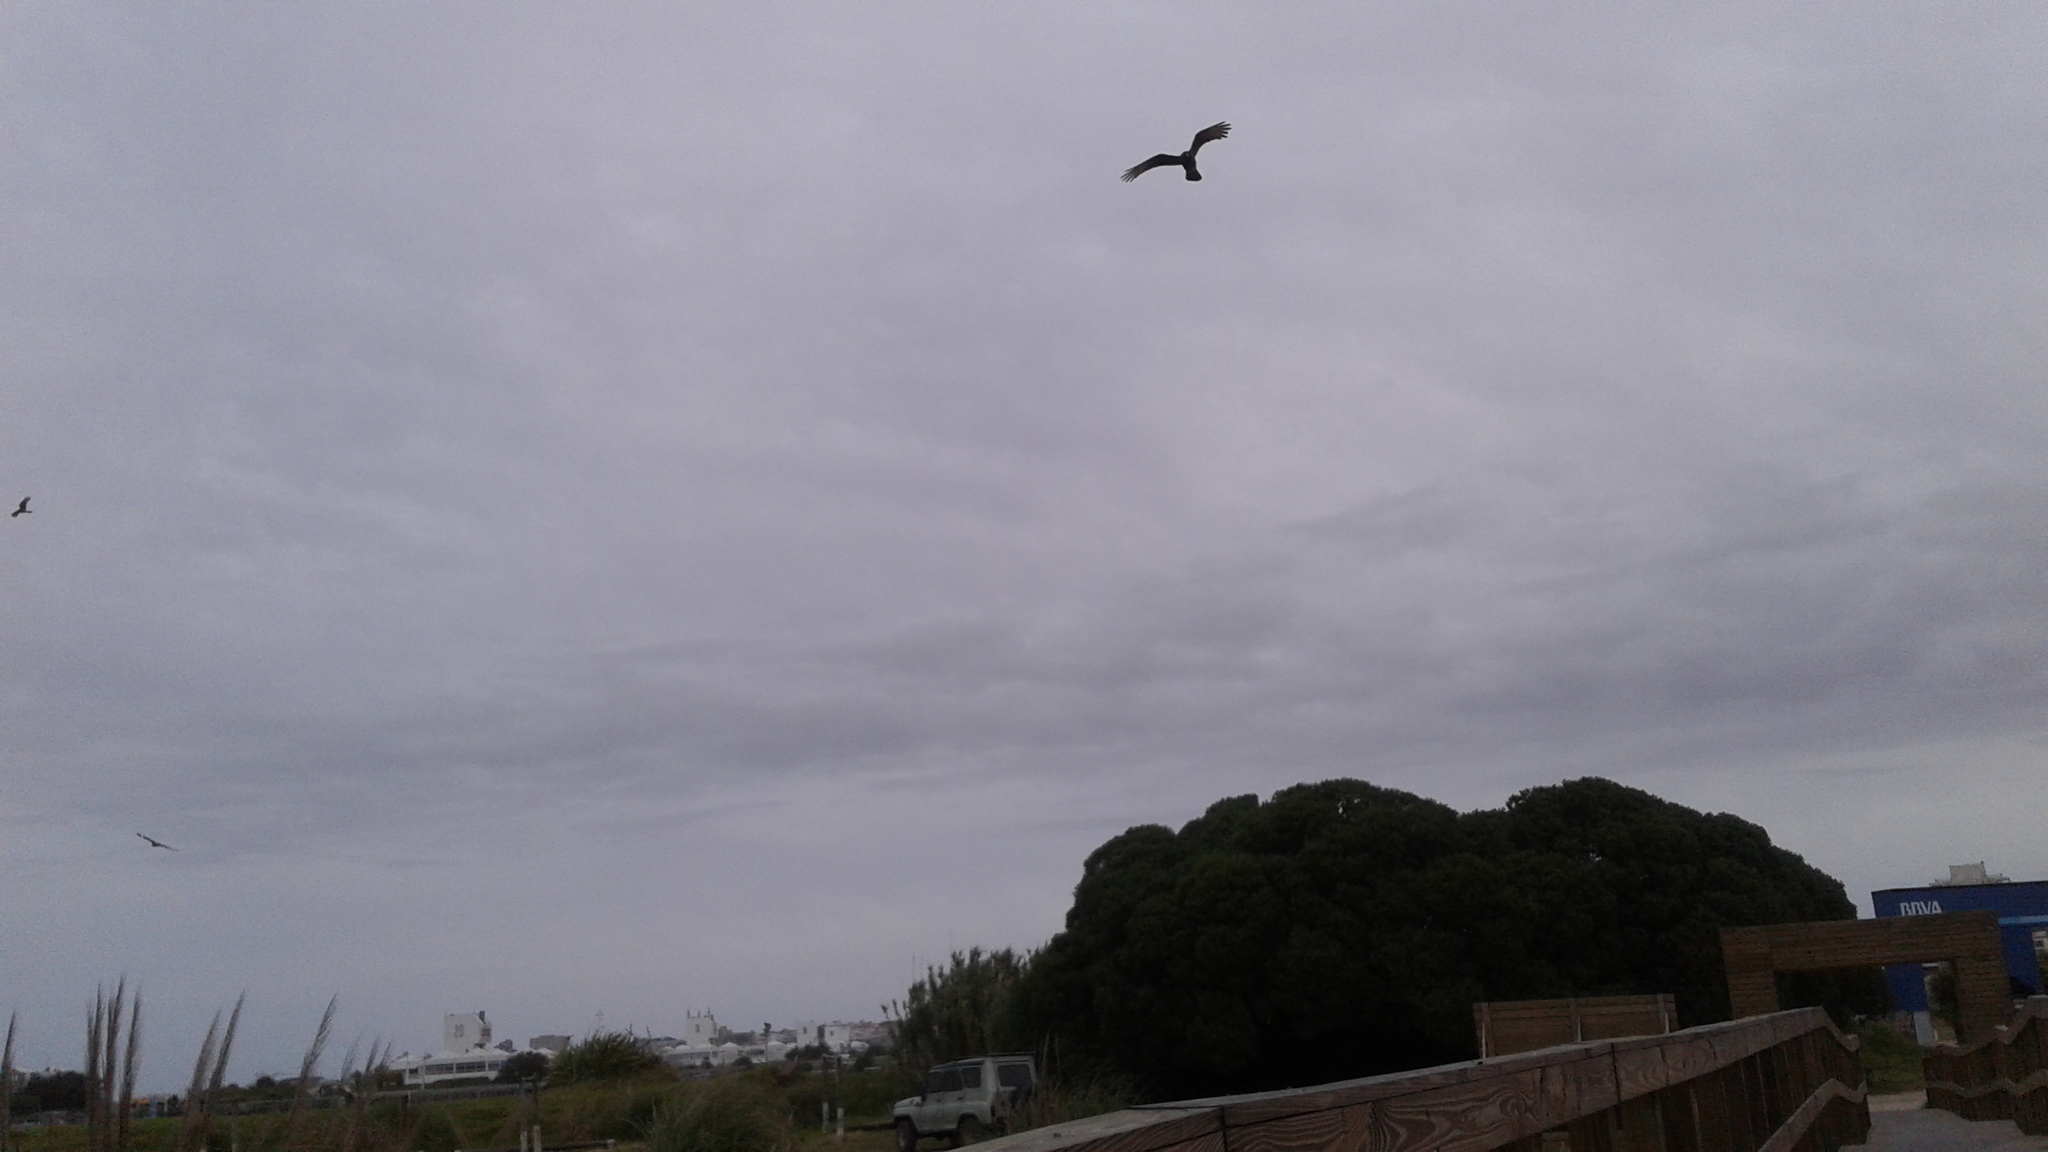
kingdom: Animalia
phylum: Chordata
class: Aves
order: Falconiformes
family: Falconidae
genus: Daptrius
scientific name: Daptrius
